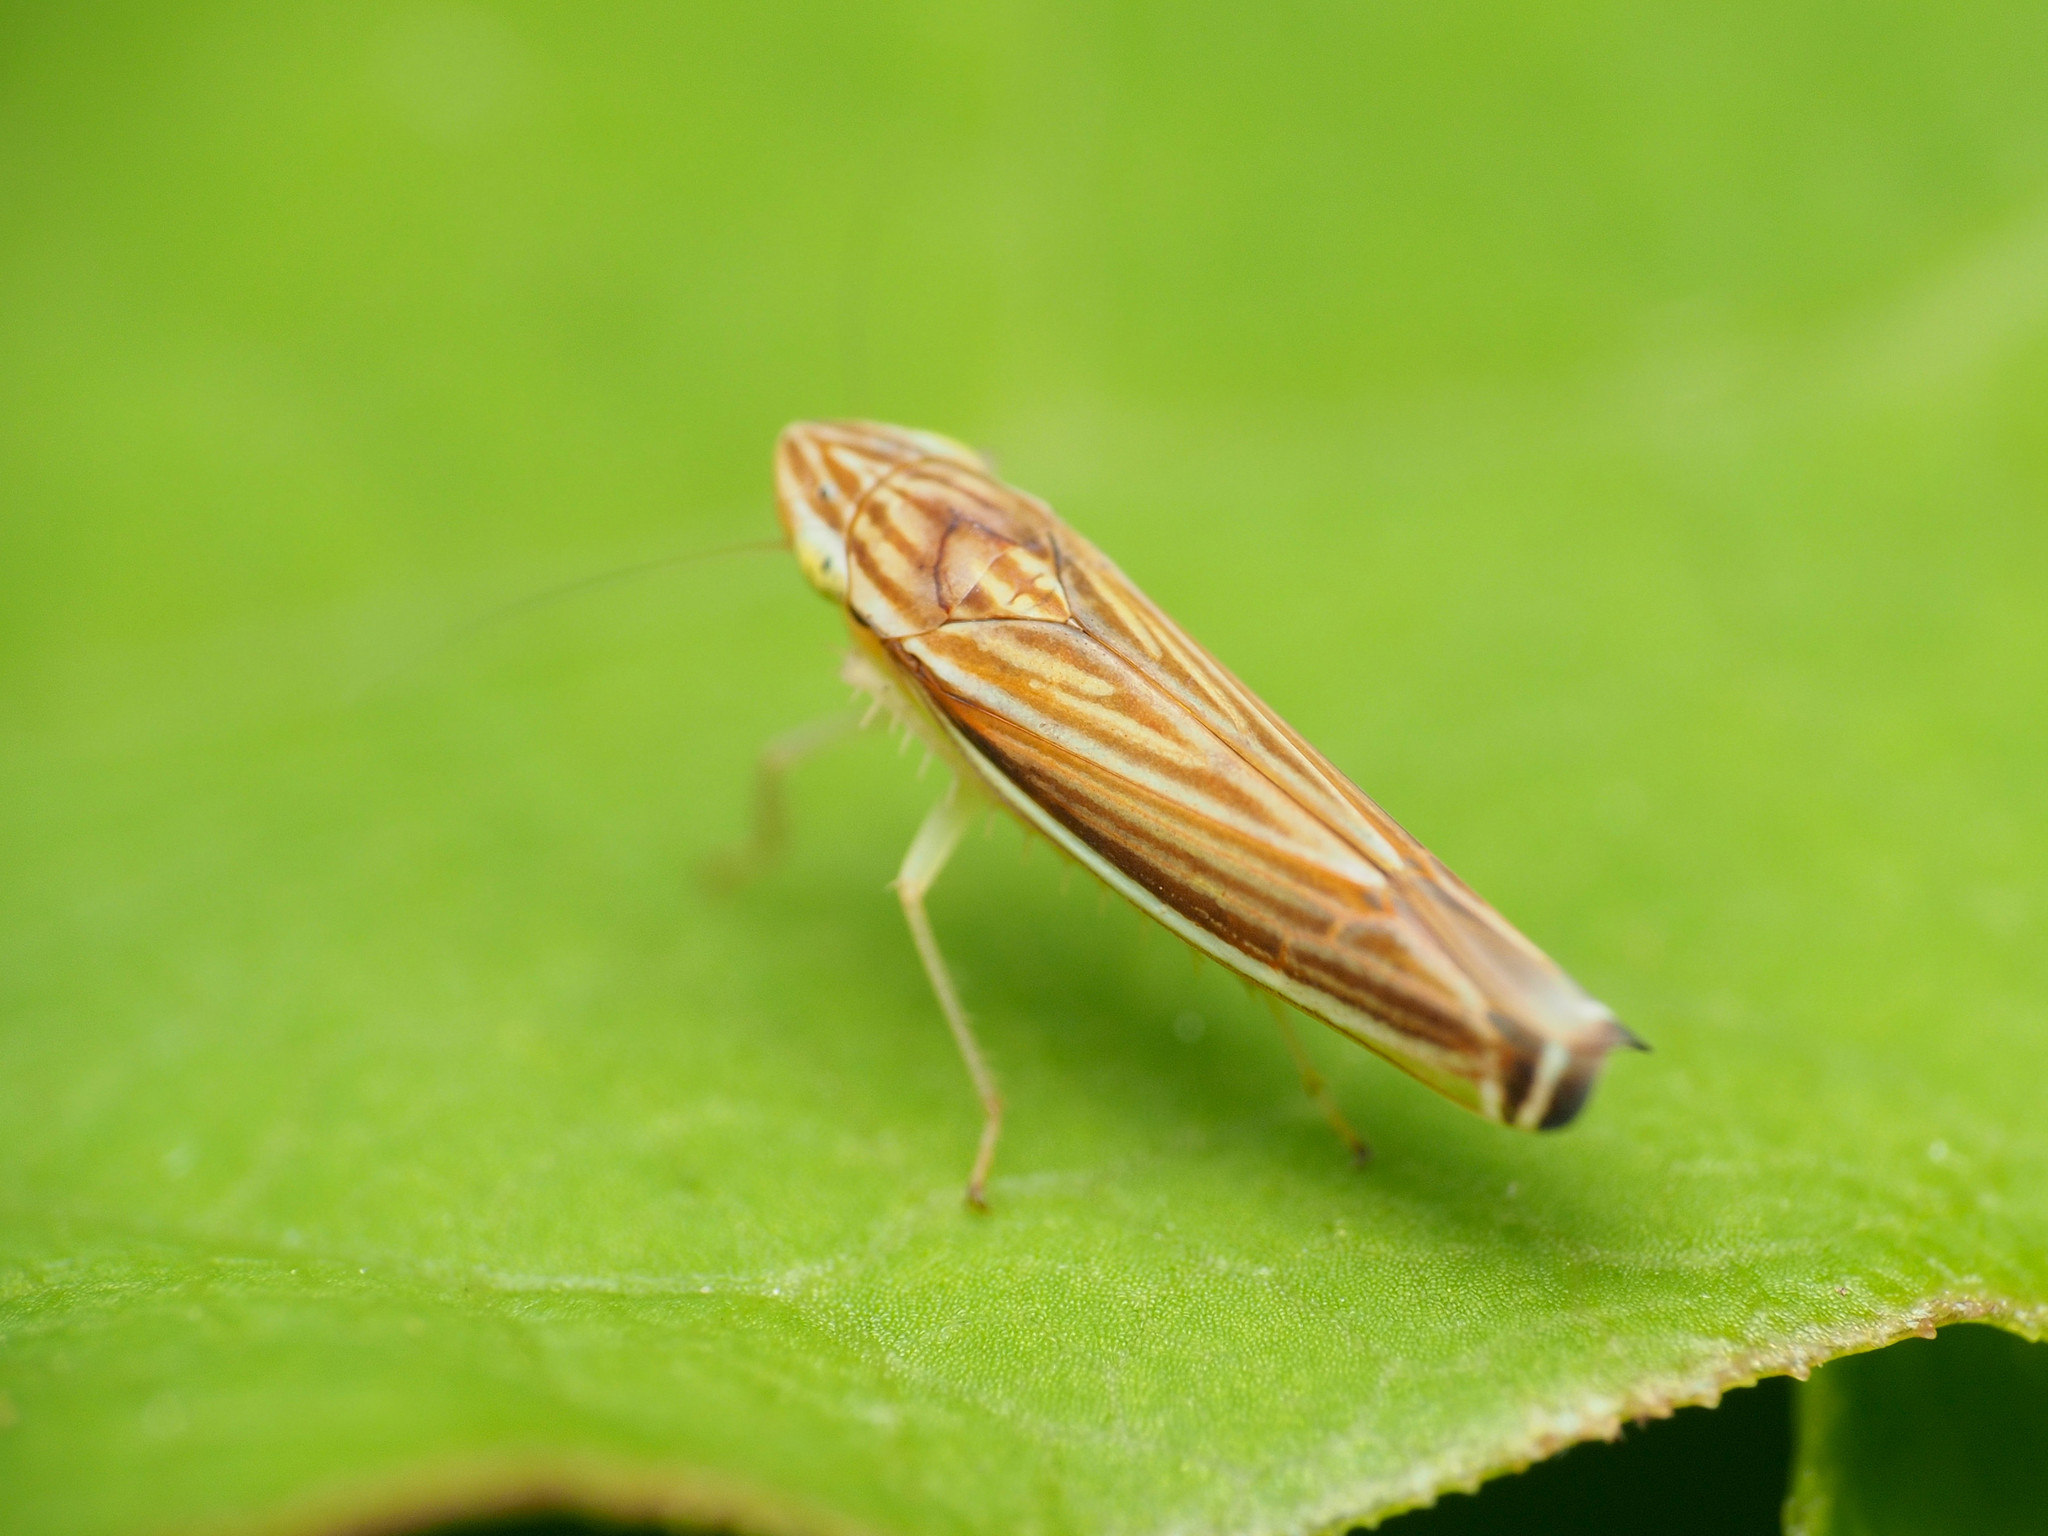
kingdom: Animalia
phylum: Arthropoda
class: Insecta
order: Hemiptera
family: Cicadellidae
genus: Sibovia
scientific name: Sibovia occatoria
